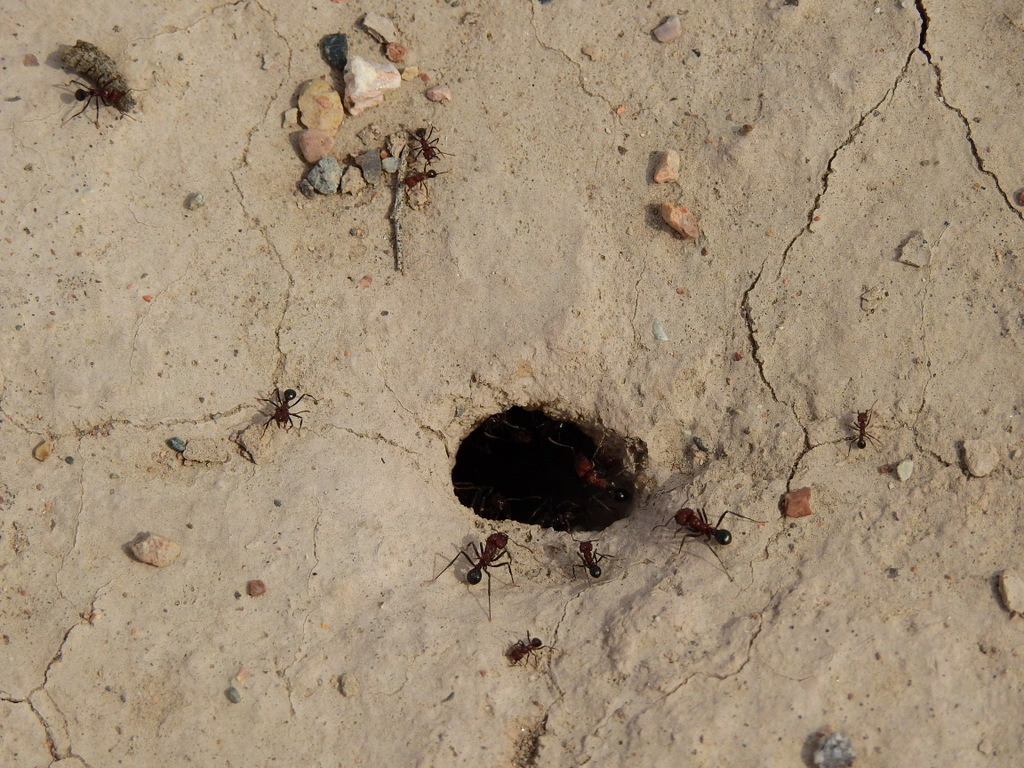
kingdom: Animalia
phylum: Arthropoda
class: Insecta
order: Hymenoptera
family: Formicidae
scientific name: Formicidae
